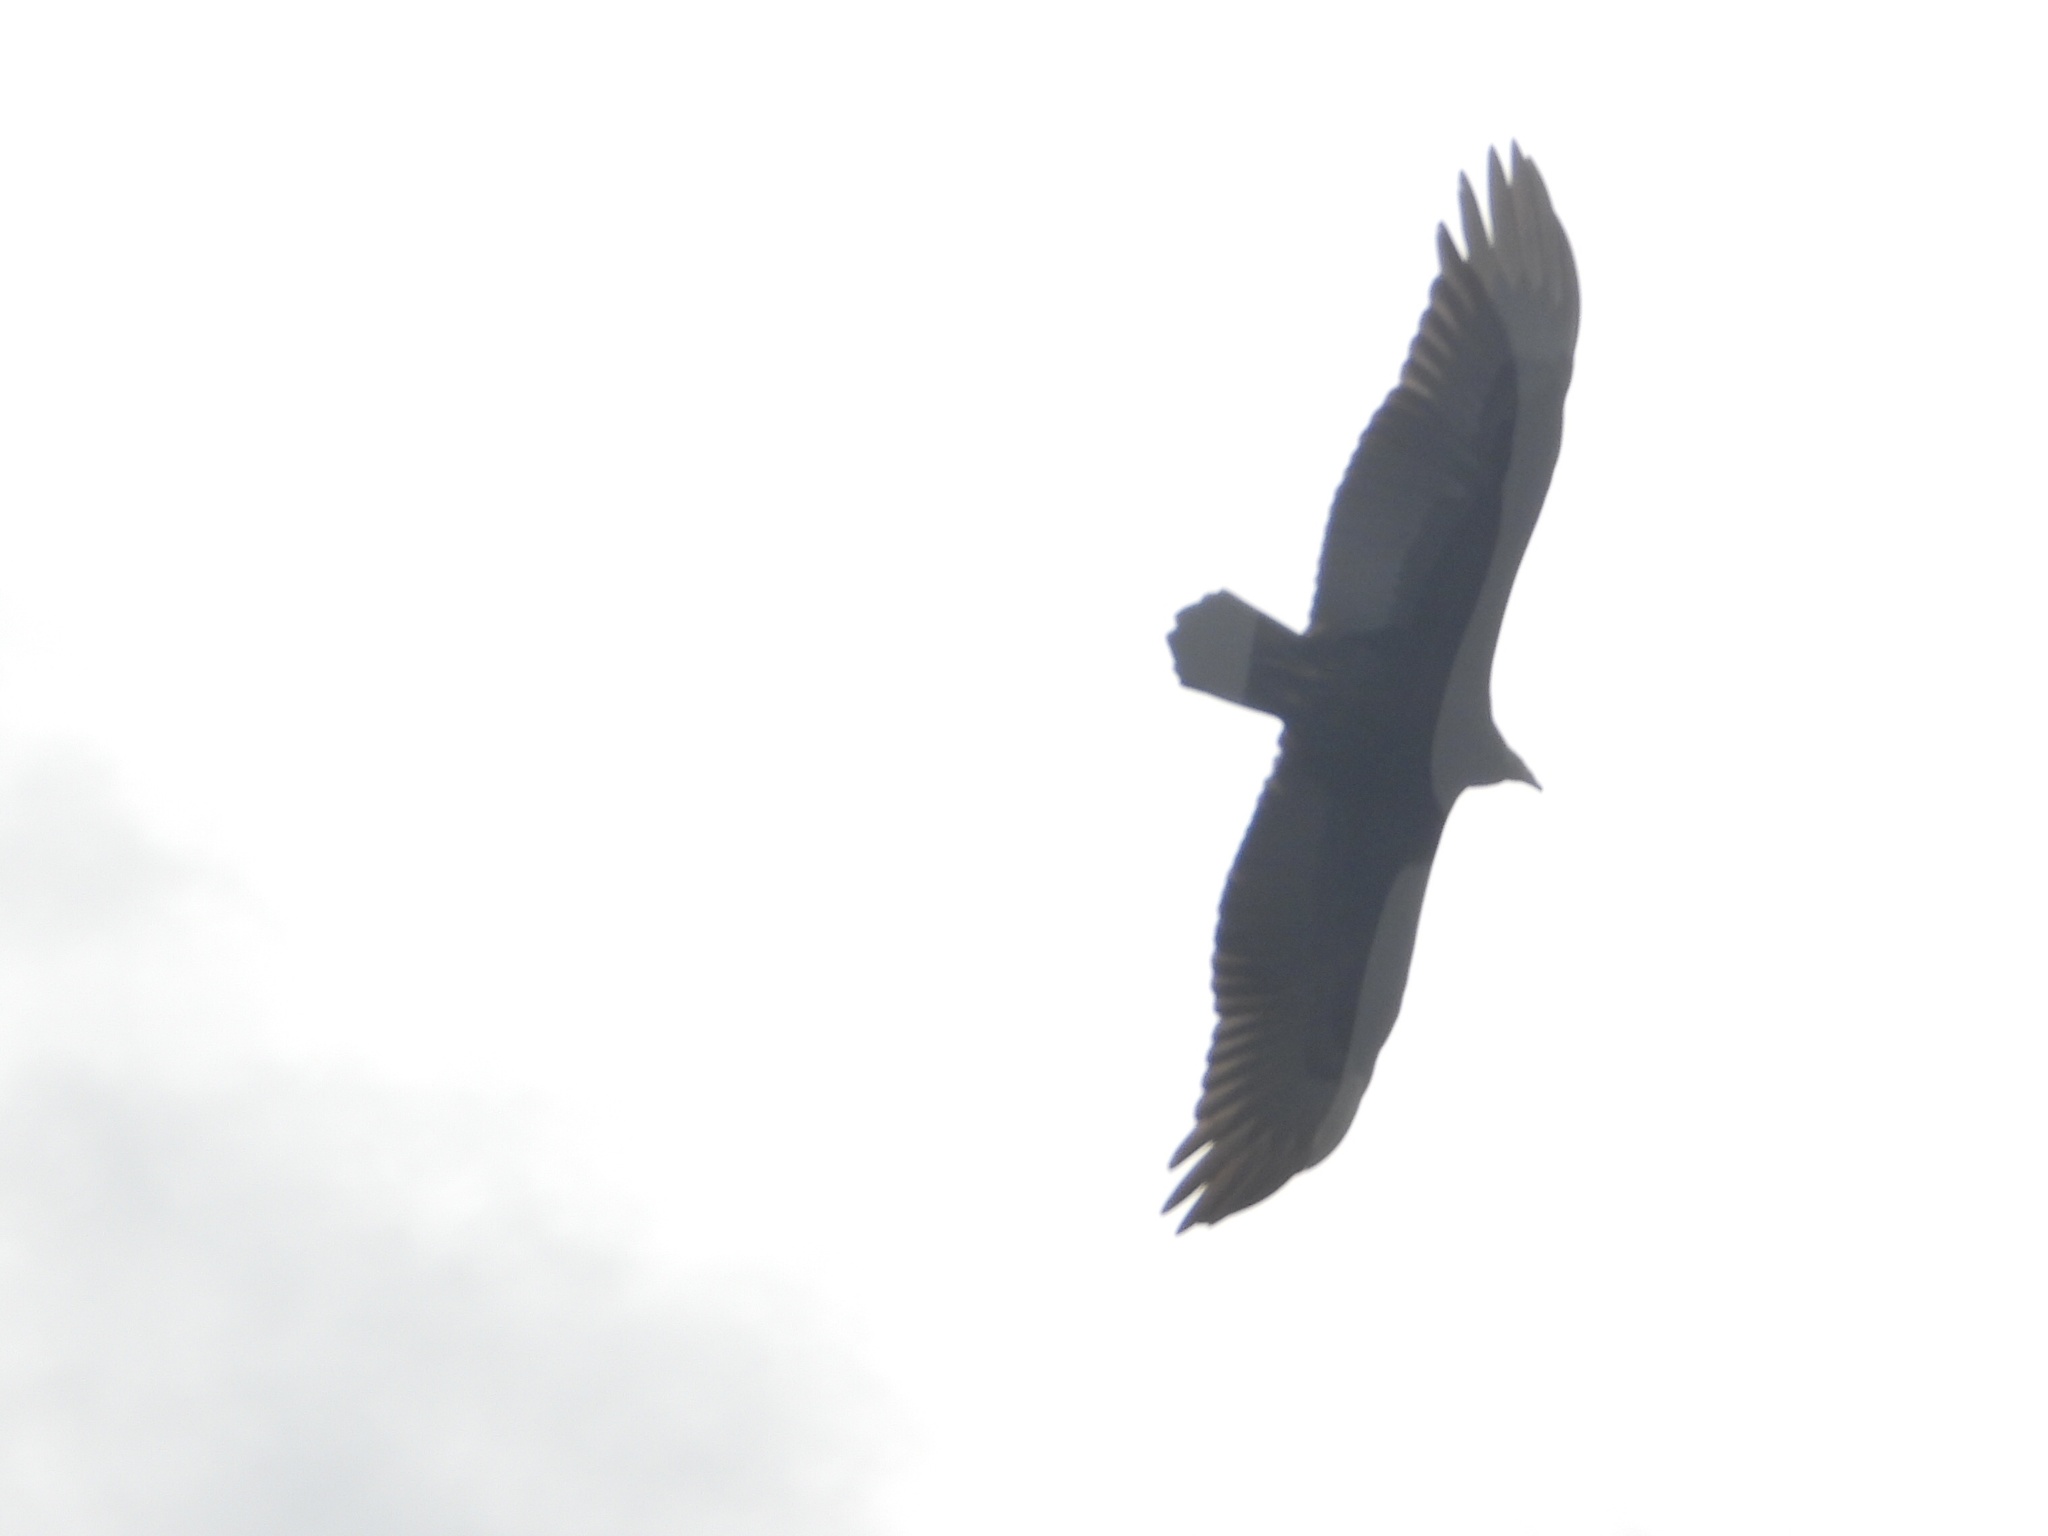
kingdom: Animalia
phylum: Chordata
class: Aves
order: Accipitriformes
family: Cathartidae
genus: Cathartes
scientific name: Cathartes aura
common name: Turkey vulture
